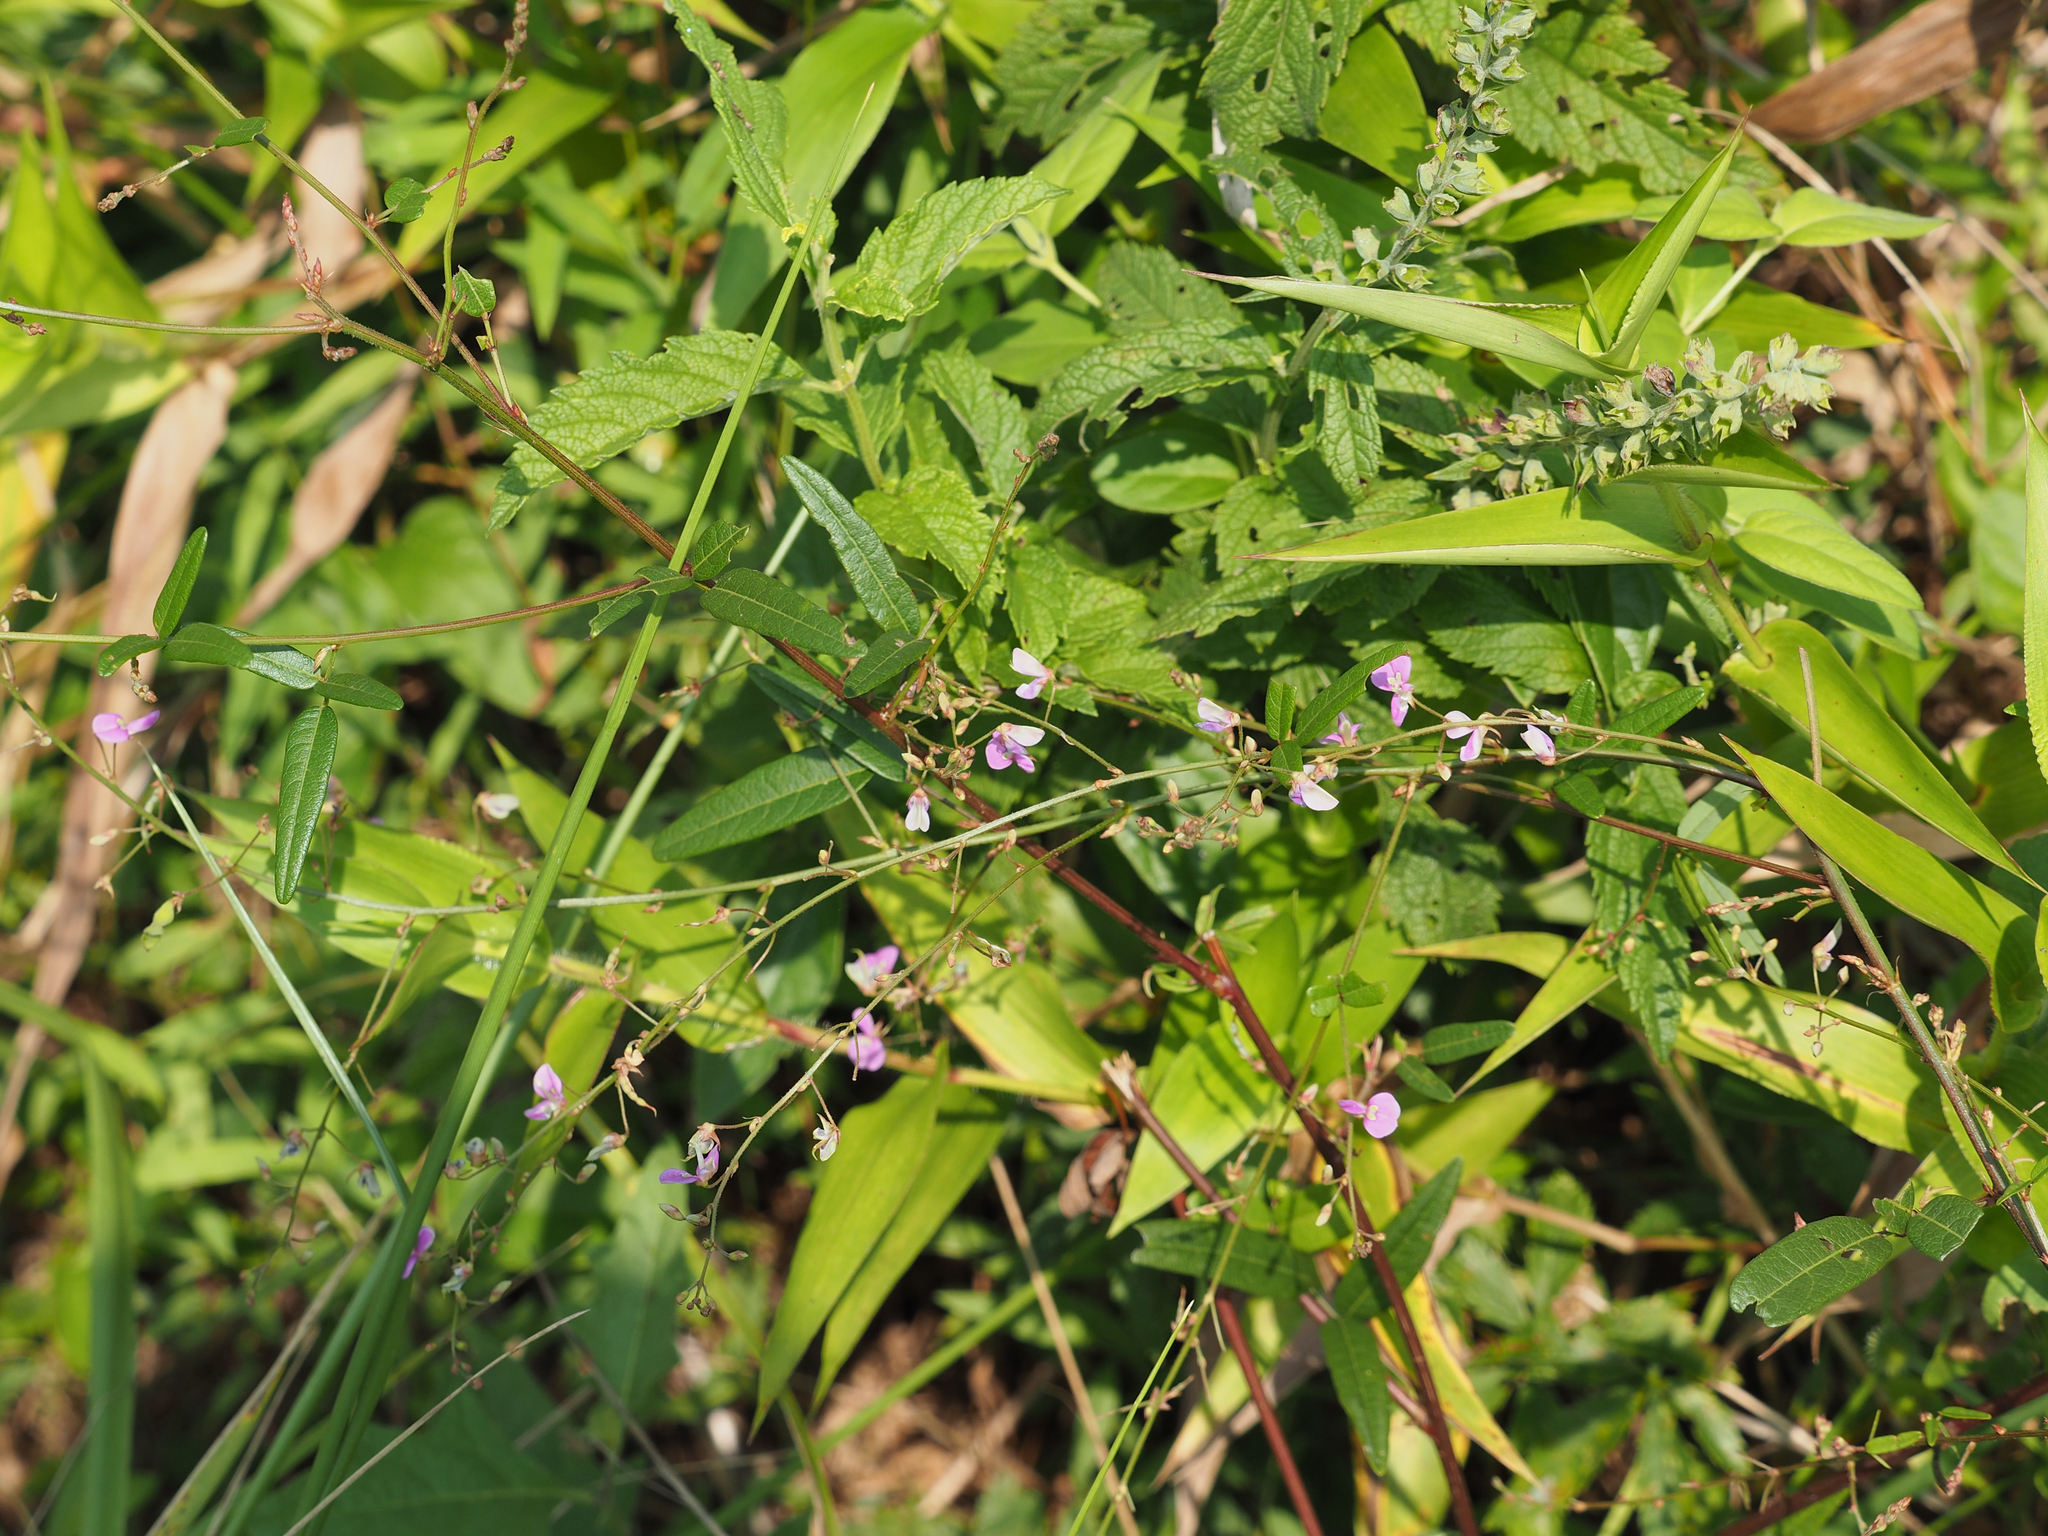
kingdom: Plantae
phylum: Tracheophyta
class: Magnoliopsida
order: Fabales
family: Fabaceae
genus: Desmodium
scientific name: Desmodium paniculatum
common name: Panicled tick-clover
